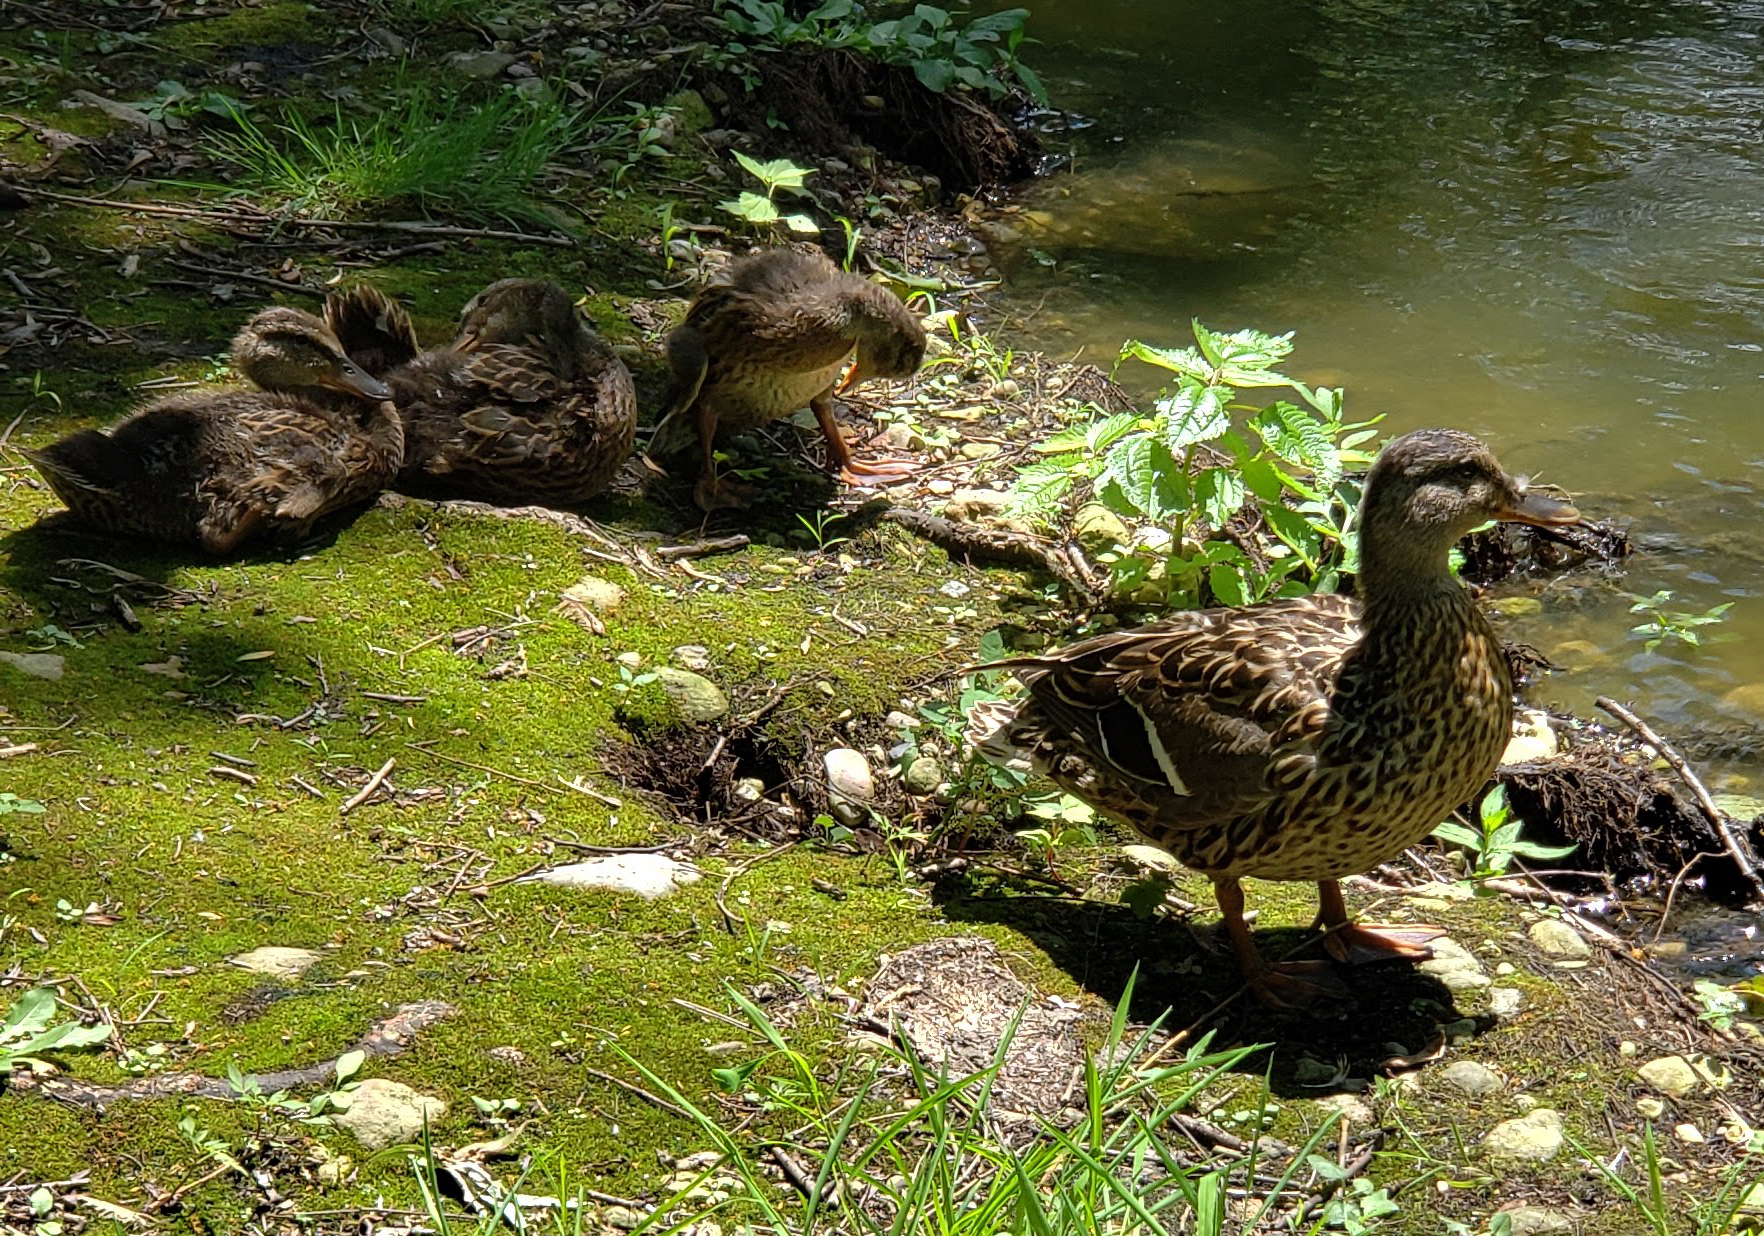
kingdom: Animalia
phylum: Chordata
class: Aves
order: Anseriformes
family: Anatidae
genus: Anas
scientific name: Anas platyrhynchos
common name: Mallard
